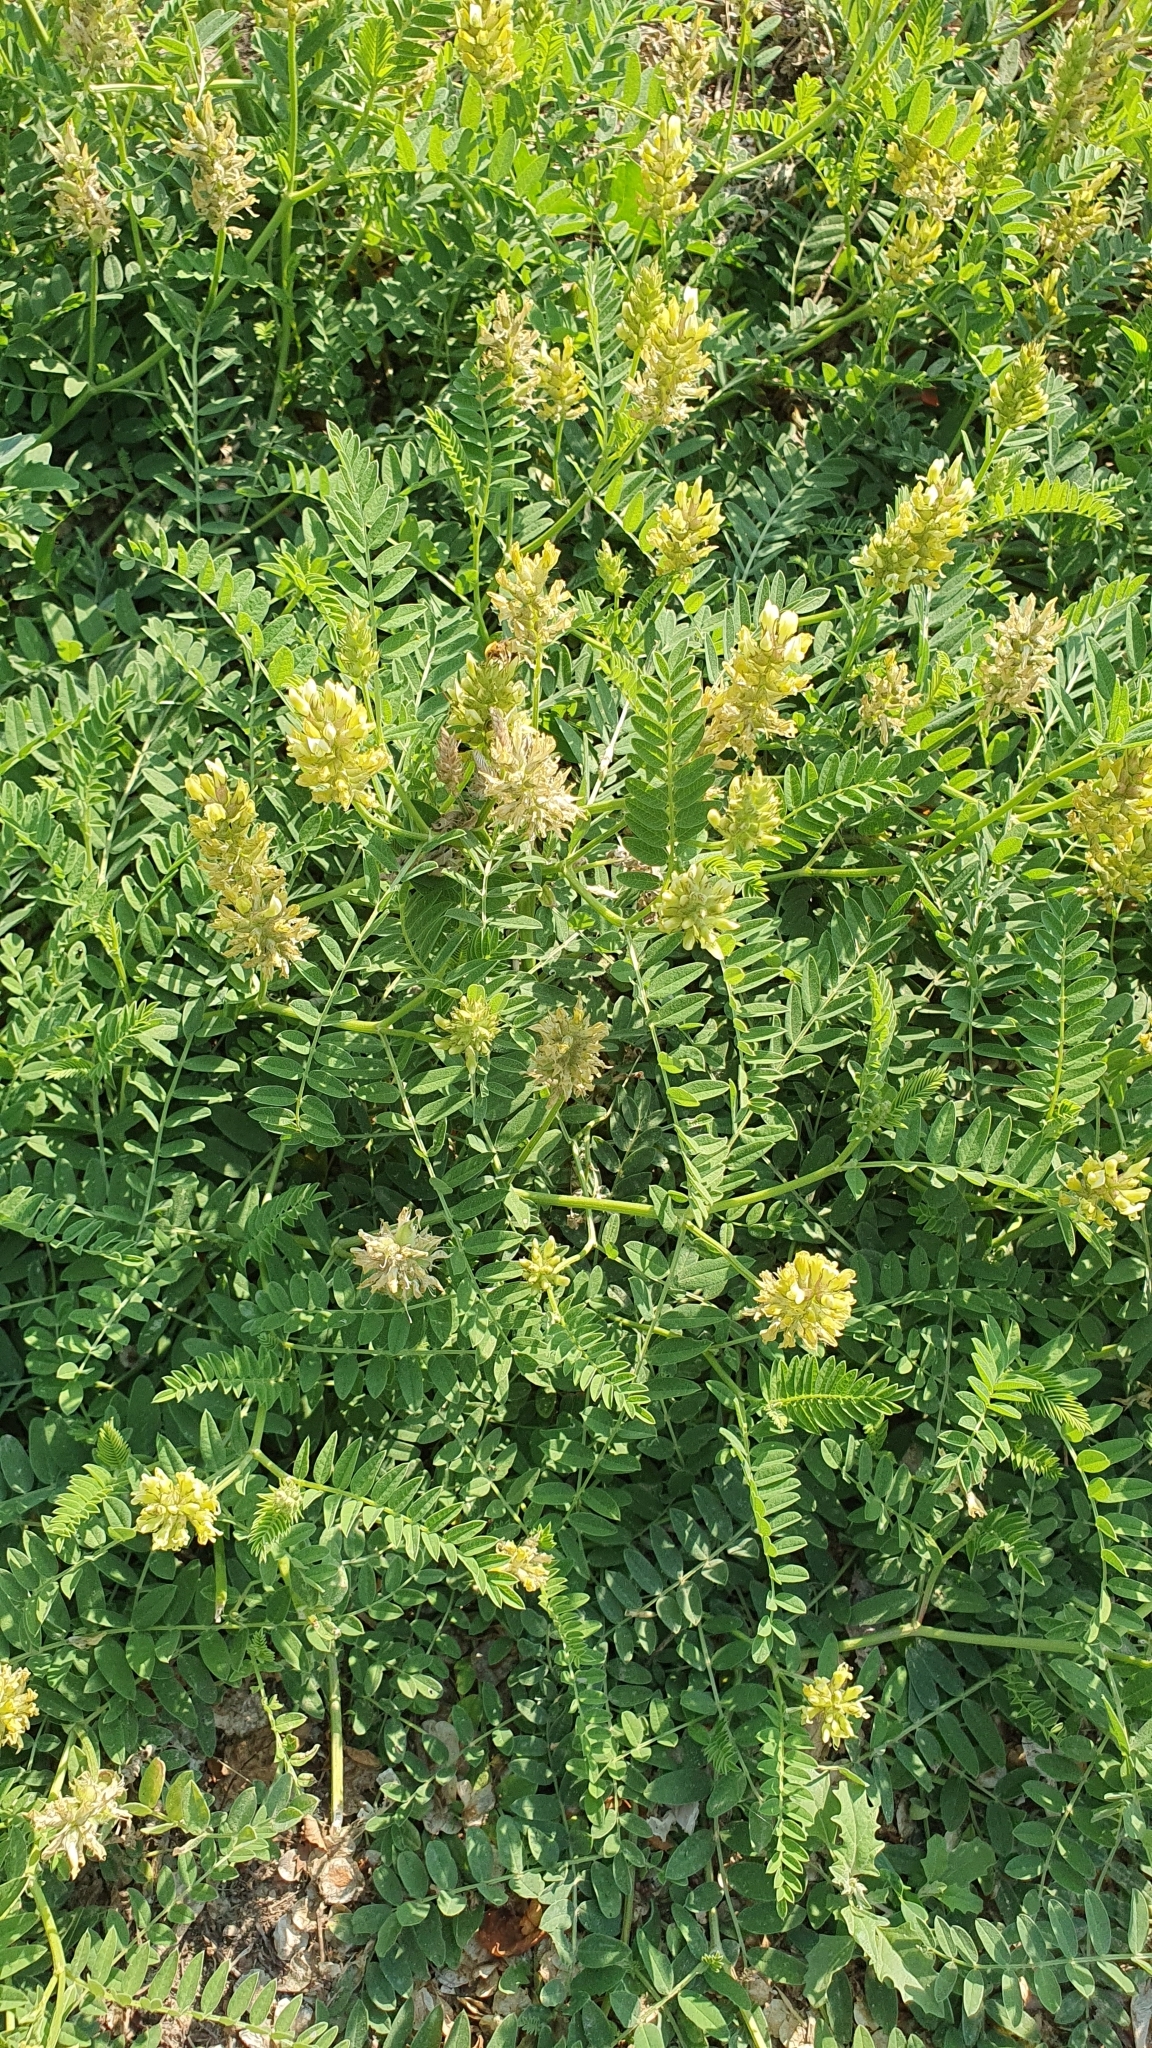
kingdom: Plantae
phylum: Tracheophyta
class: Magnoliopsida
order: Fabales
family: Fabaceae
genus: Astragalus
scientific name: Astragalus cicer
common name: Chick-pea milk-vetch
